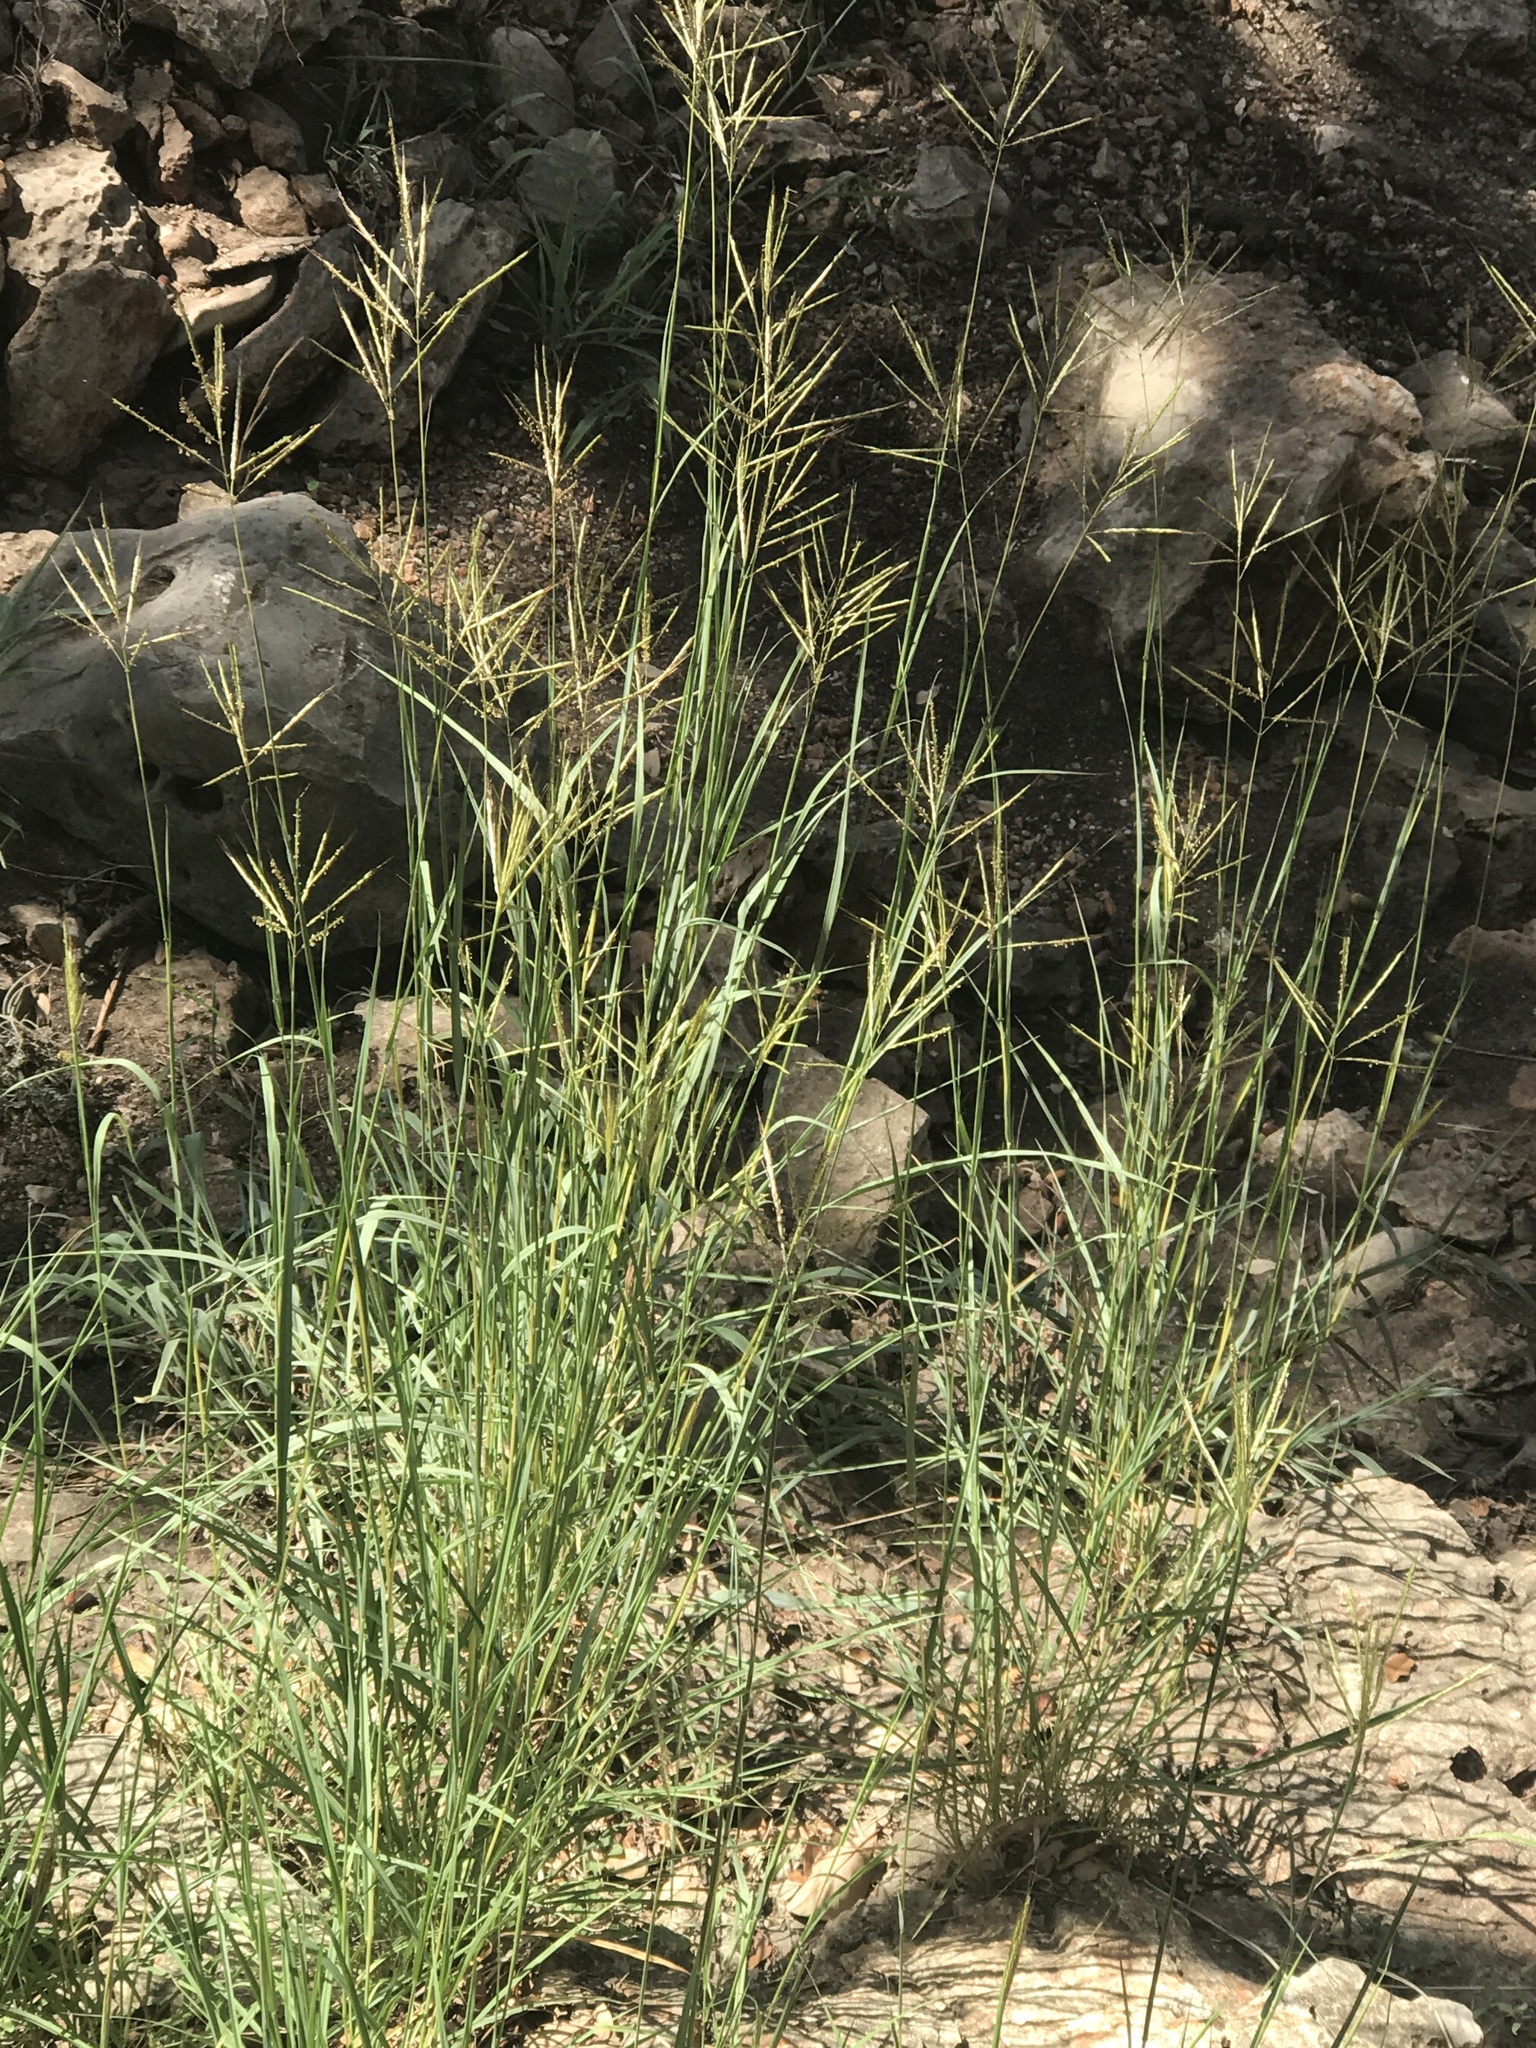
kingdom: Plantae
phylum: Tracheophyta
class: Liliopsida
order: Poales
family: Poaceae
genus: Bothriochloa
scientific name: Bothriochloa ischaemum
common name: Yellow bluestem
